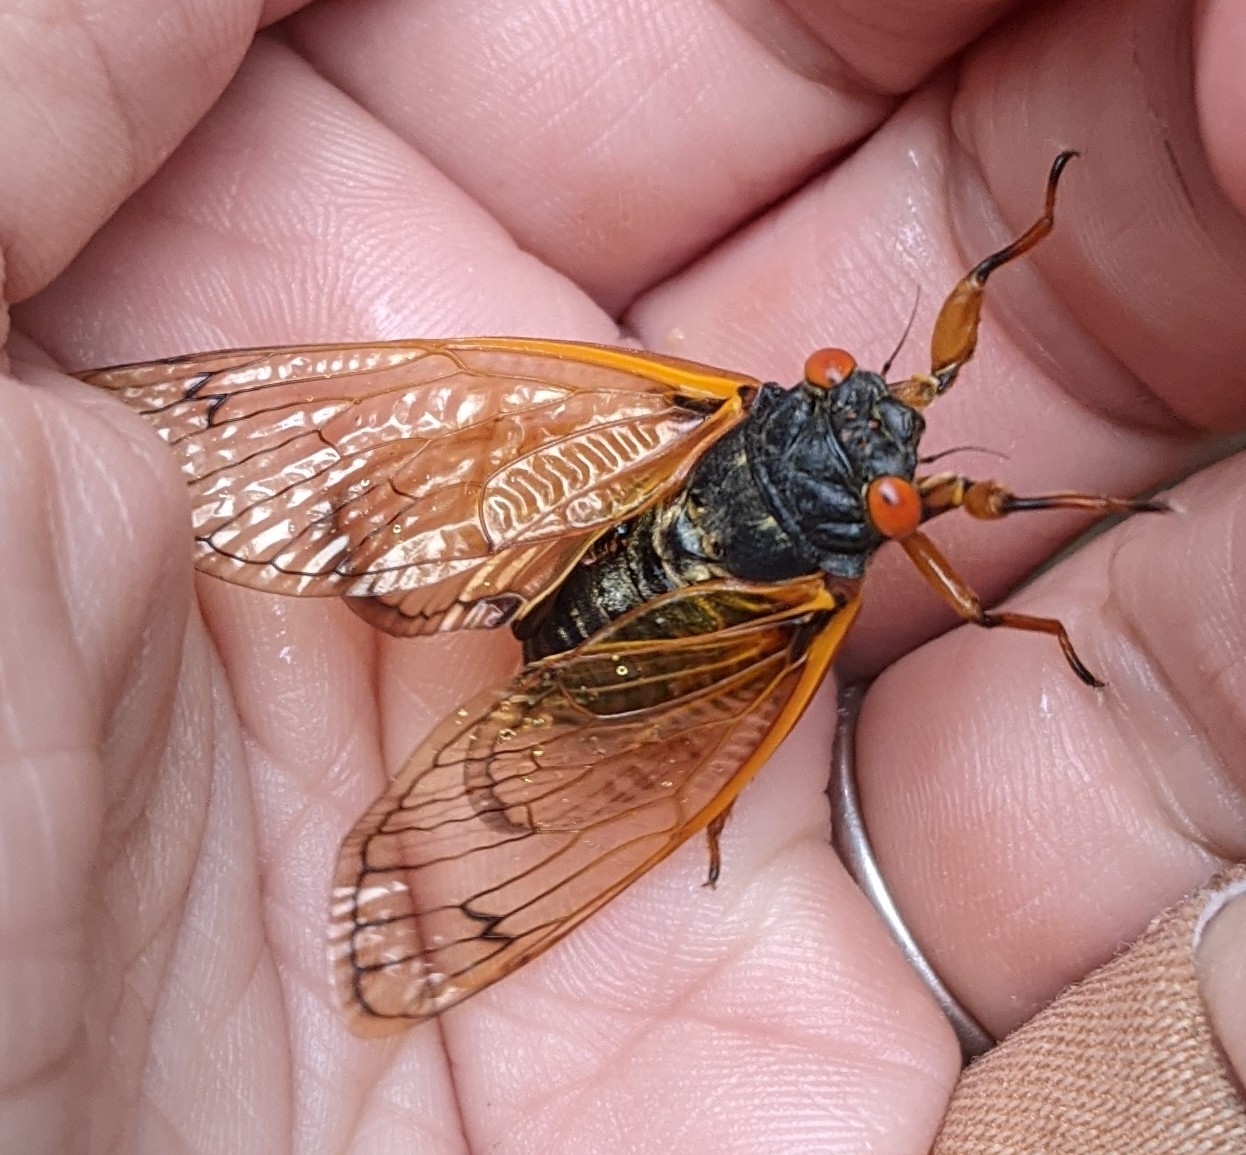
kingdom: Animalia
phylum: Arthropoda
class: Insecta
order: Hemiptera
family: Cicadidae
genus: Magicicada
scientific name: Magicicada cassini
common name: Cassin's 17-year cicada
